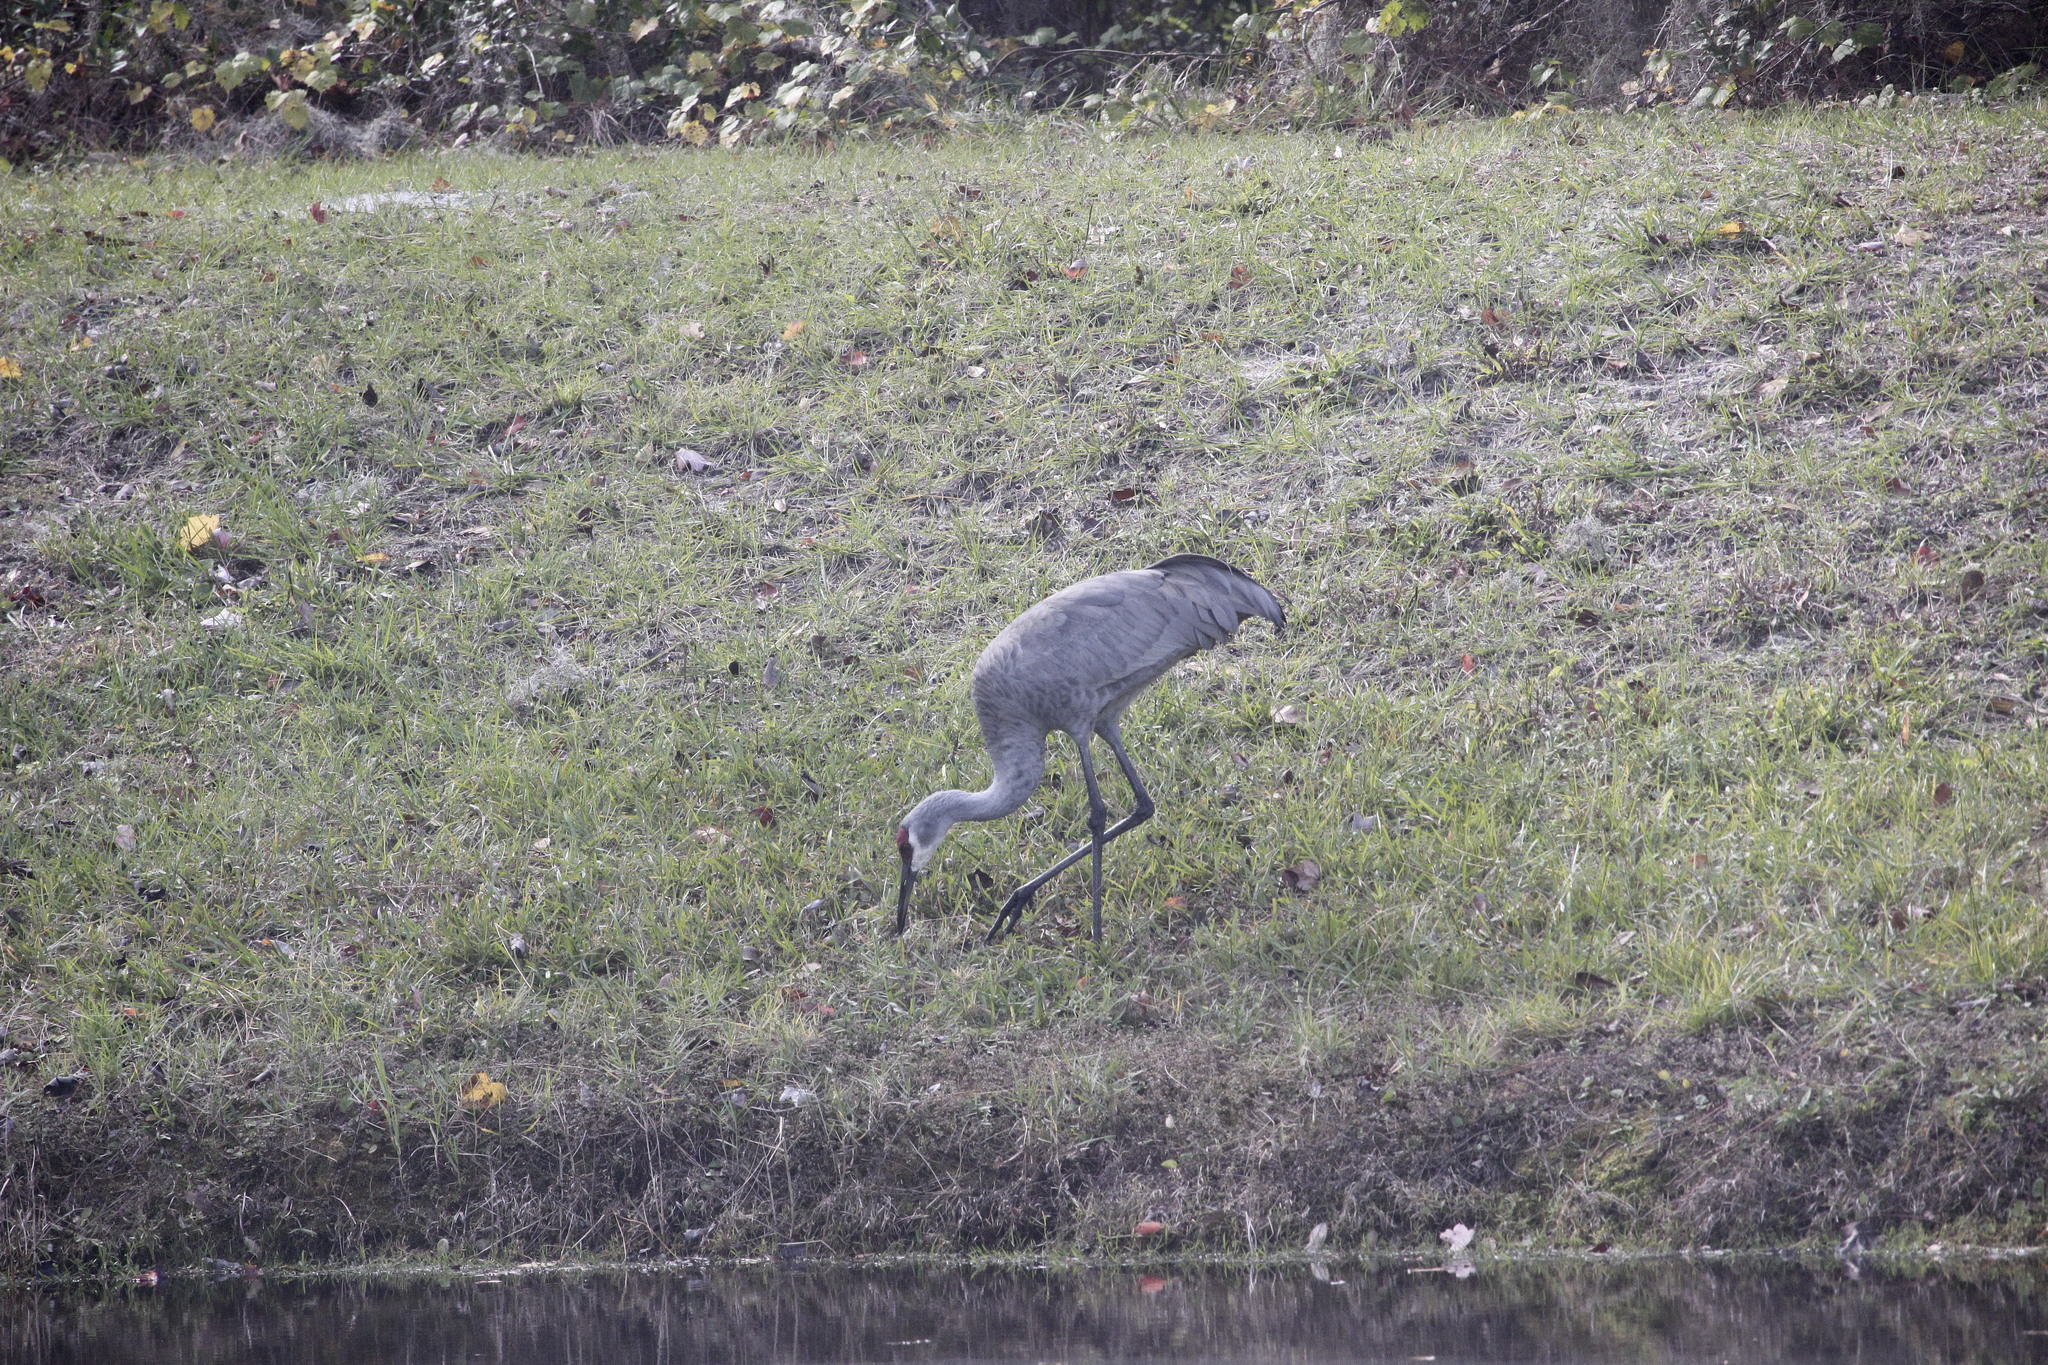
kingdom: Animalia
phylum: Chordata
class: Aves
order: Gruiformes
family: Gruidae
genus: Grus
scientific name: Grus canadensis
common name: Sandhill crane
